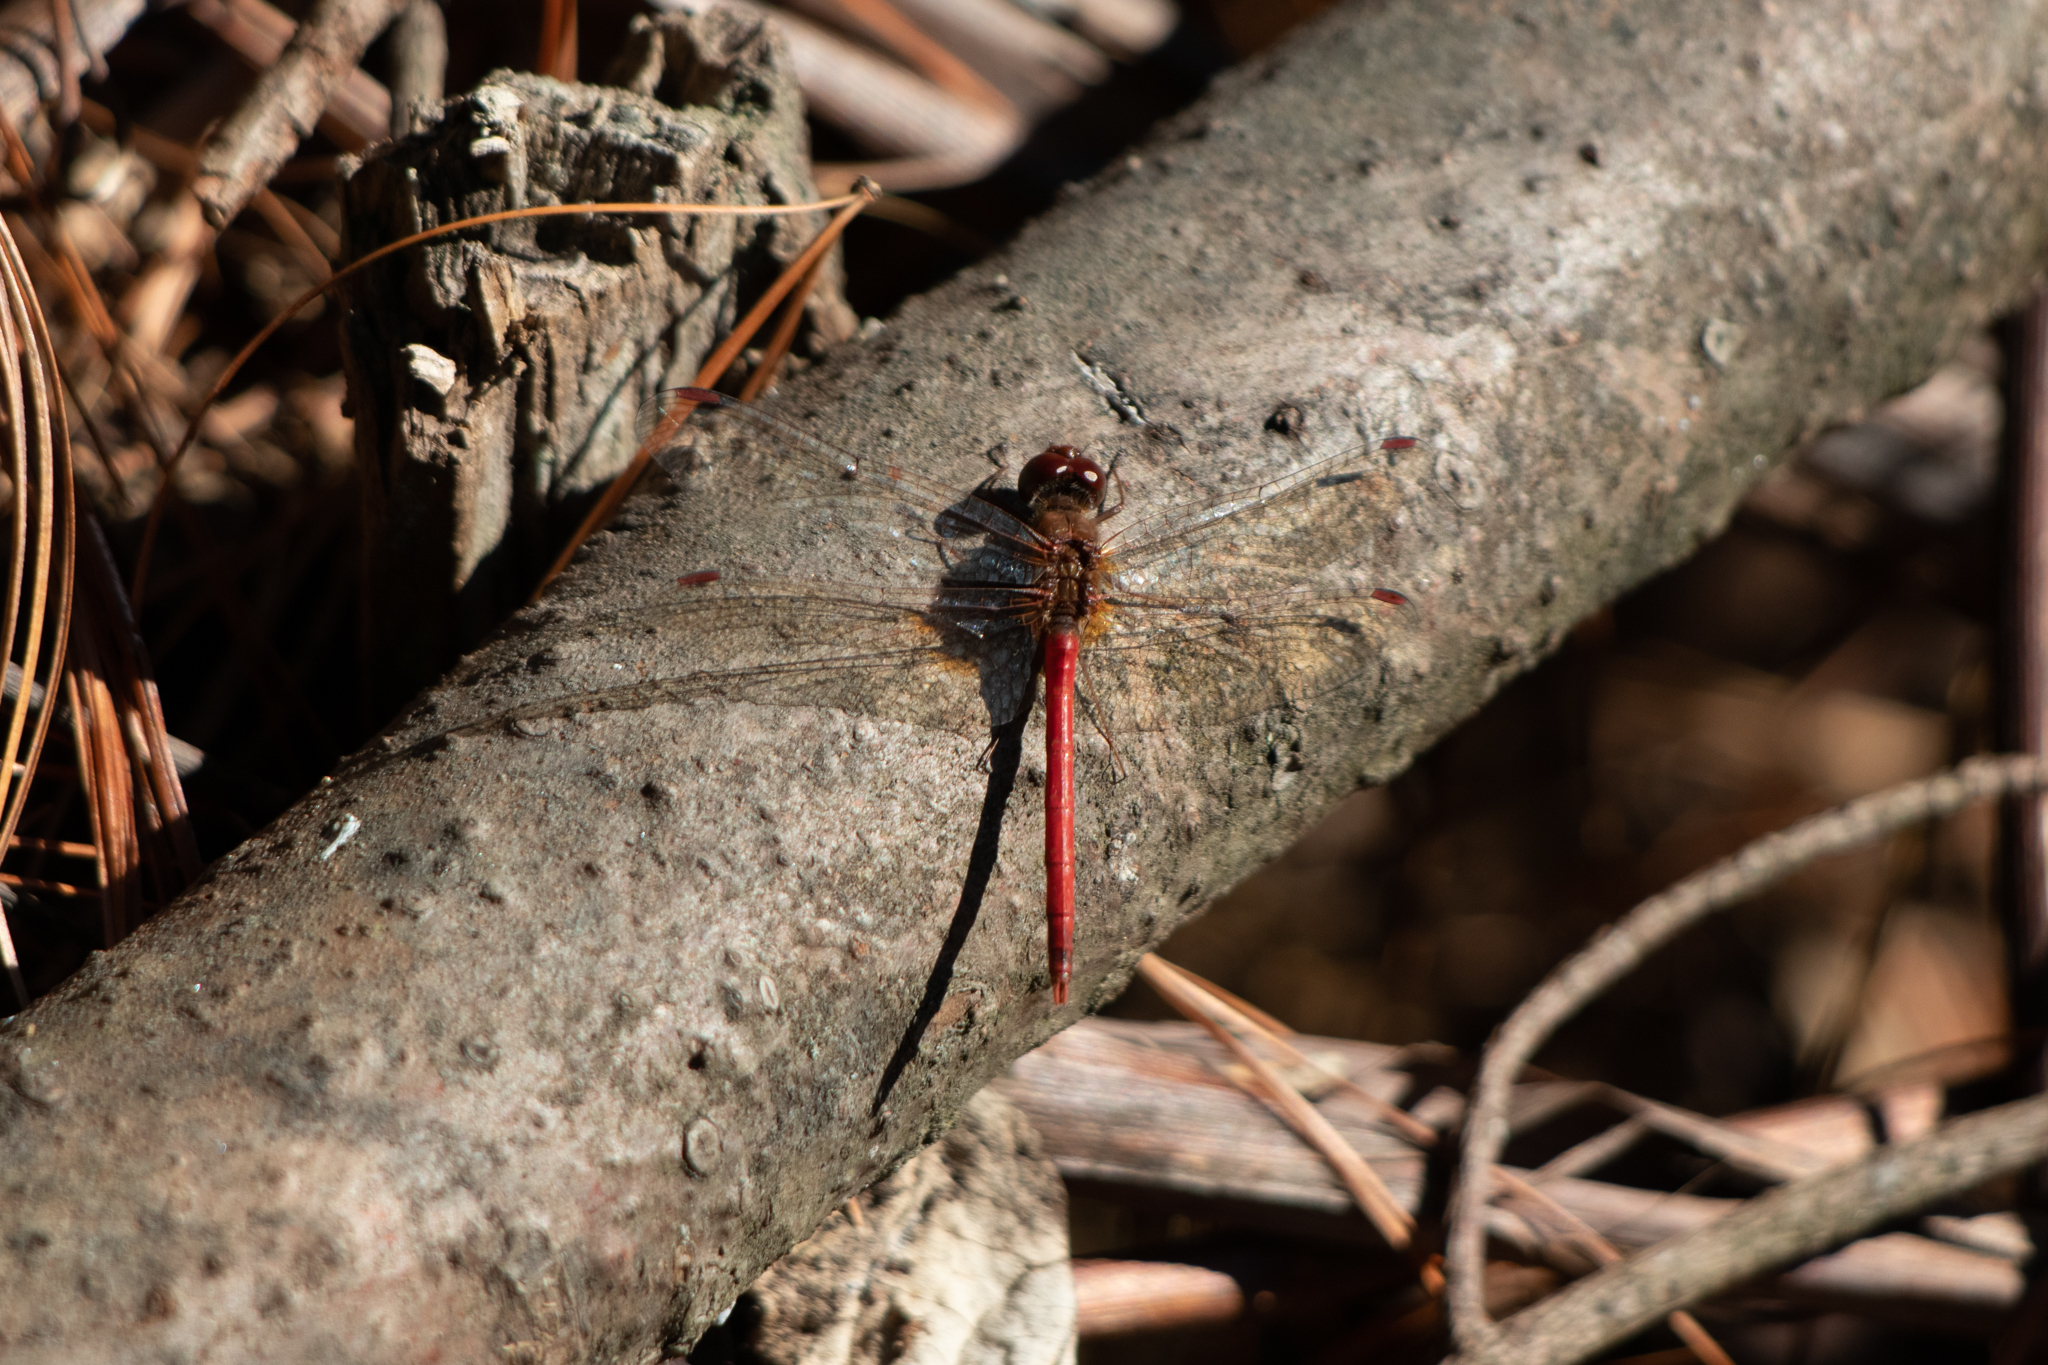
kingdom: Animalia
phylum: Arthropoda
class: Insecta
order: Odonata
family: Libellulidae
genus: Sympetrum
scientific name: Sympetrum vicinum
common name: Autumn meadowhawk
